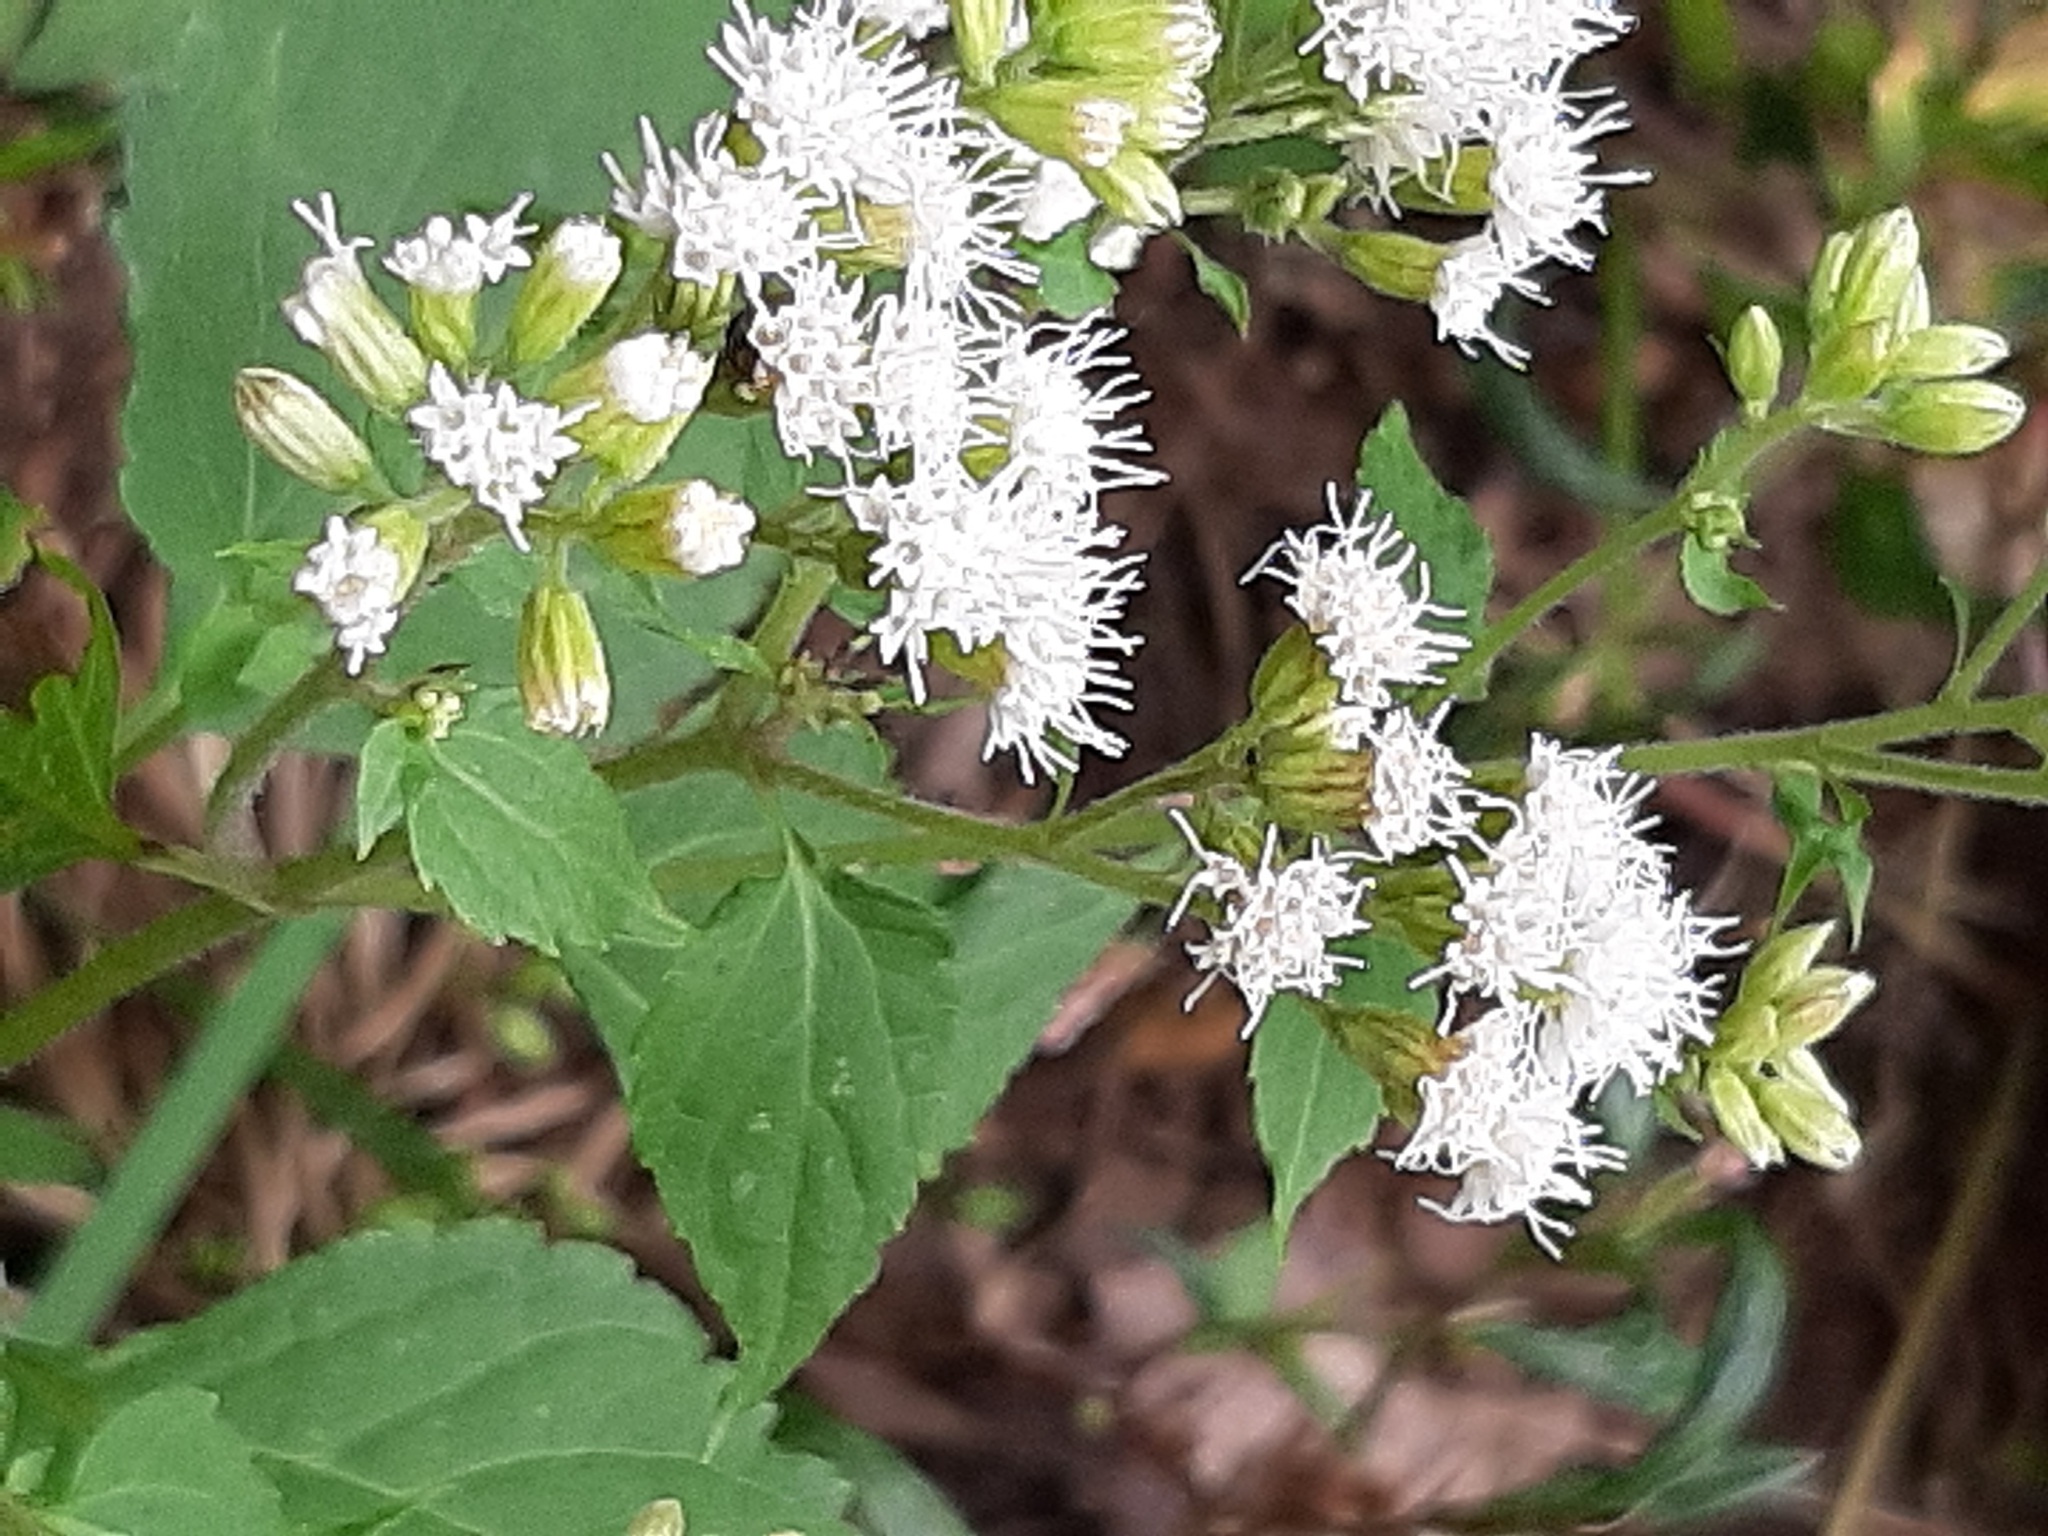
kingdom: Plantae
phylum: Tracheophyta
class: Magnoliopsida
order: Asterales
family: Asteraceae
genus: Ageratina
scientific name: Ageratina altissima
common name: White snakeroot
